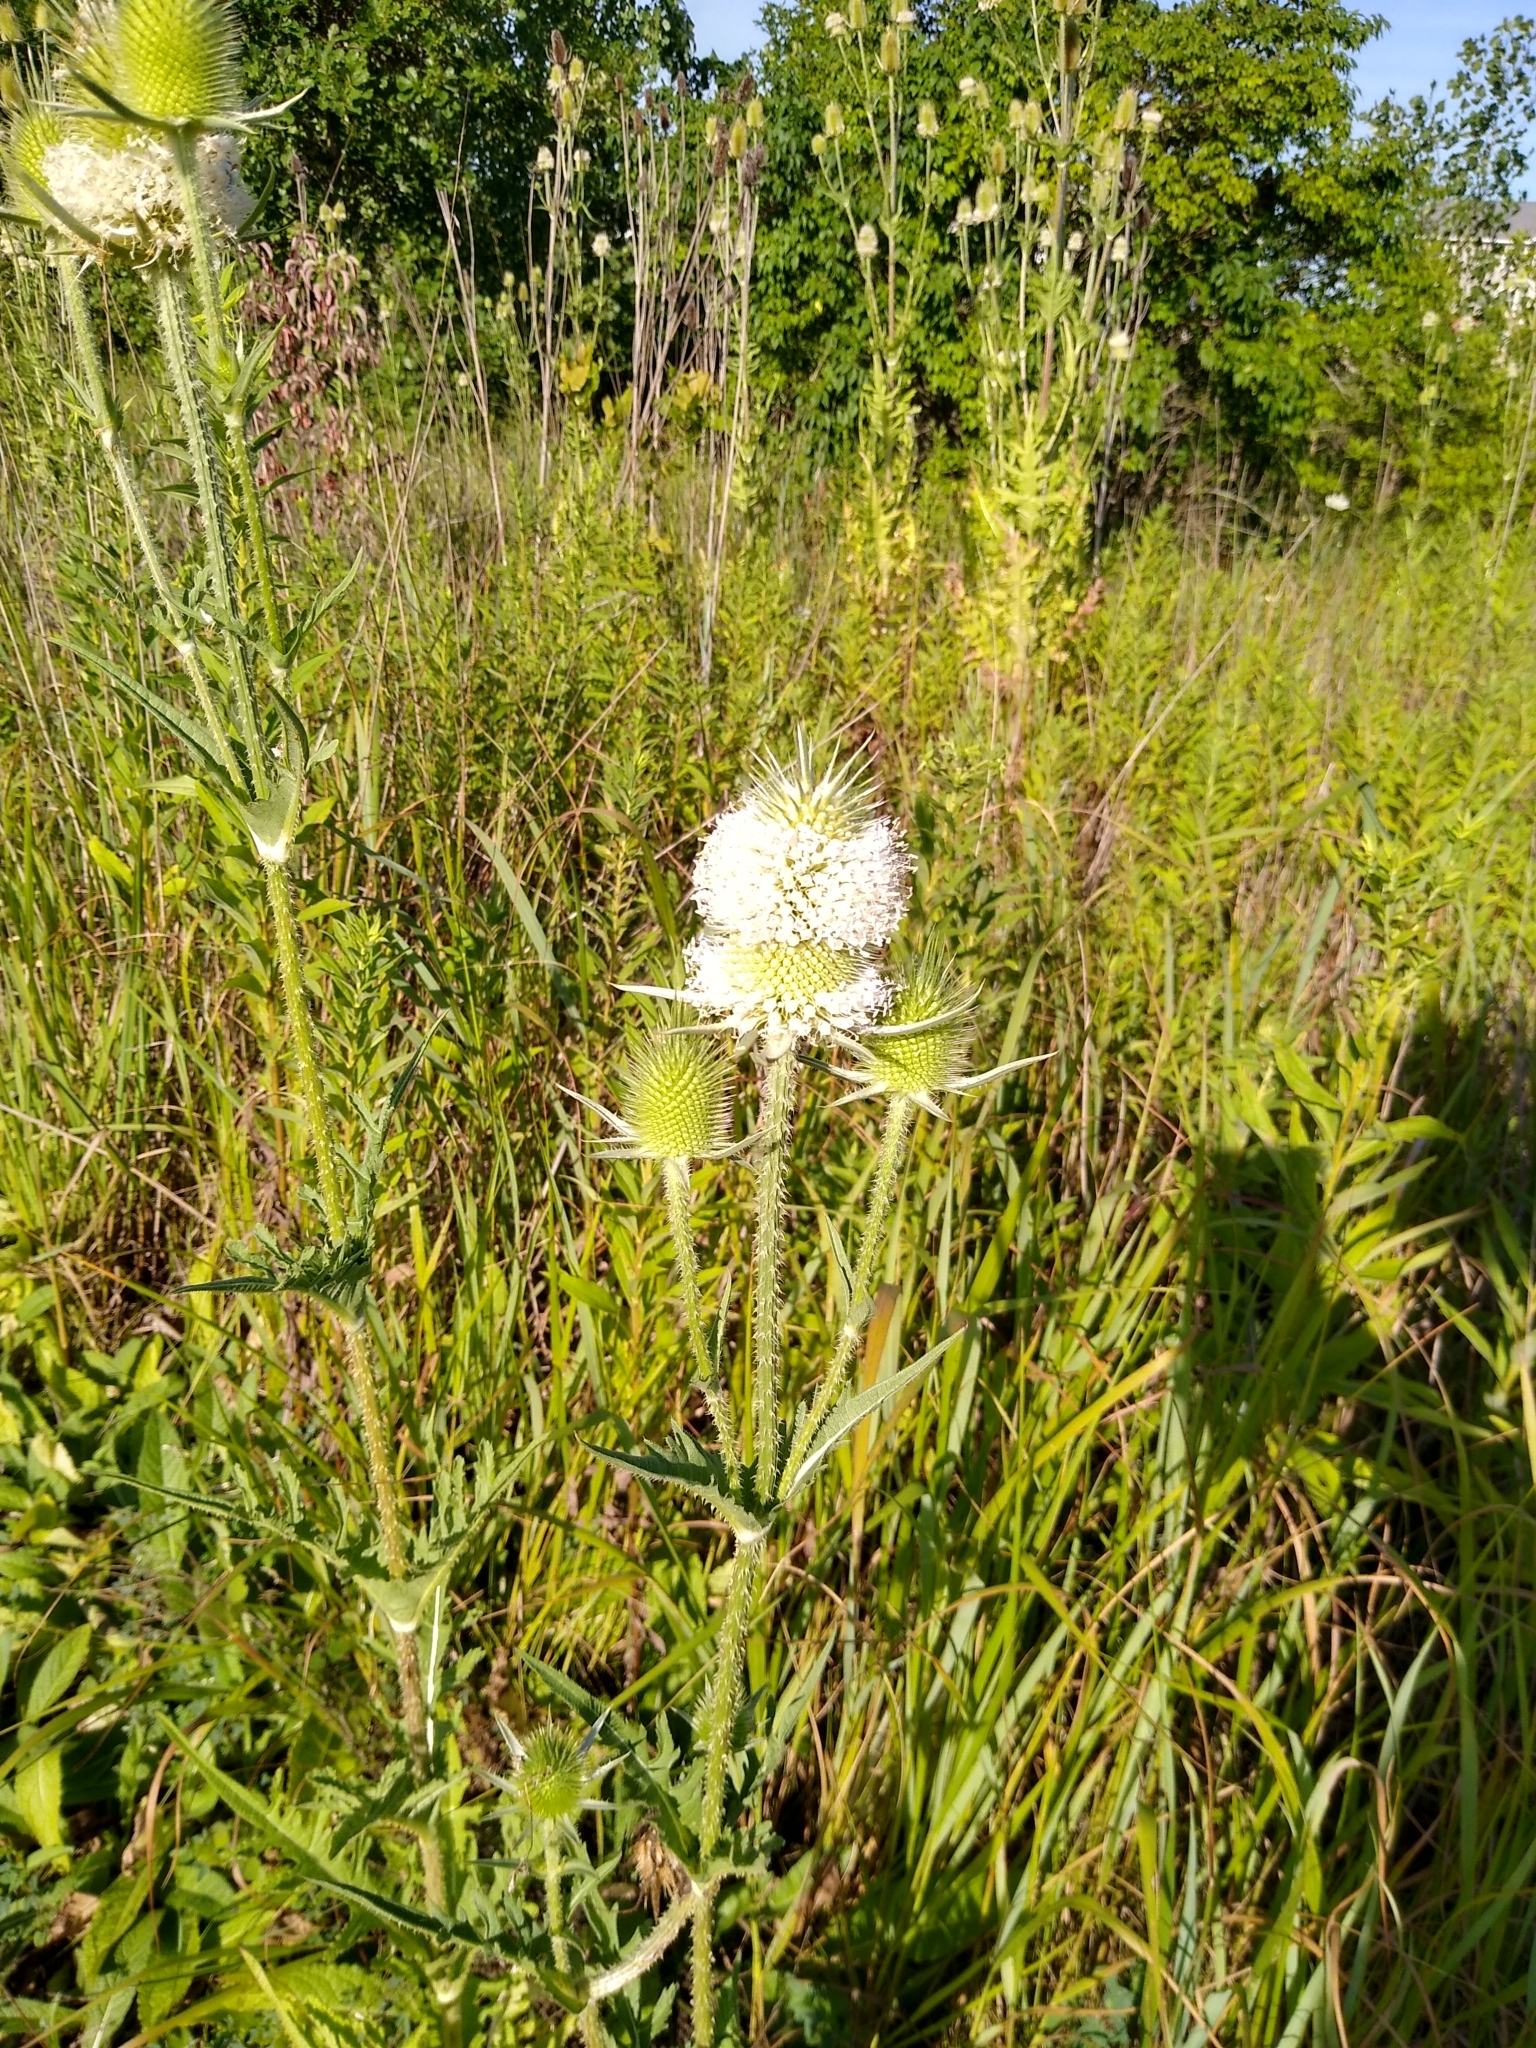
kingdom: Plantae
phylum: Tracheophyta
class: Magnoliopsida
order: Dipsacales
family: Caprifoliaceae
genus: Dipsacus
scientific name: Dipsacus laciniatus
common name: Cut-leaved teasel
